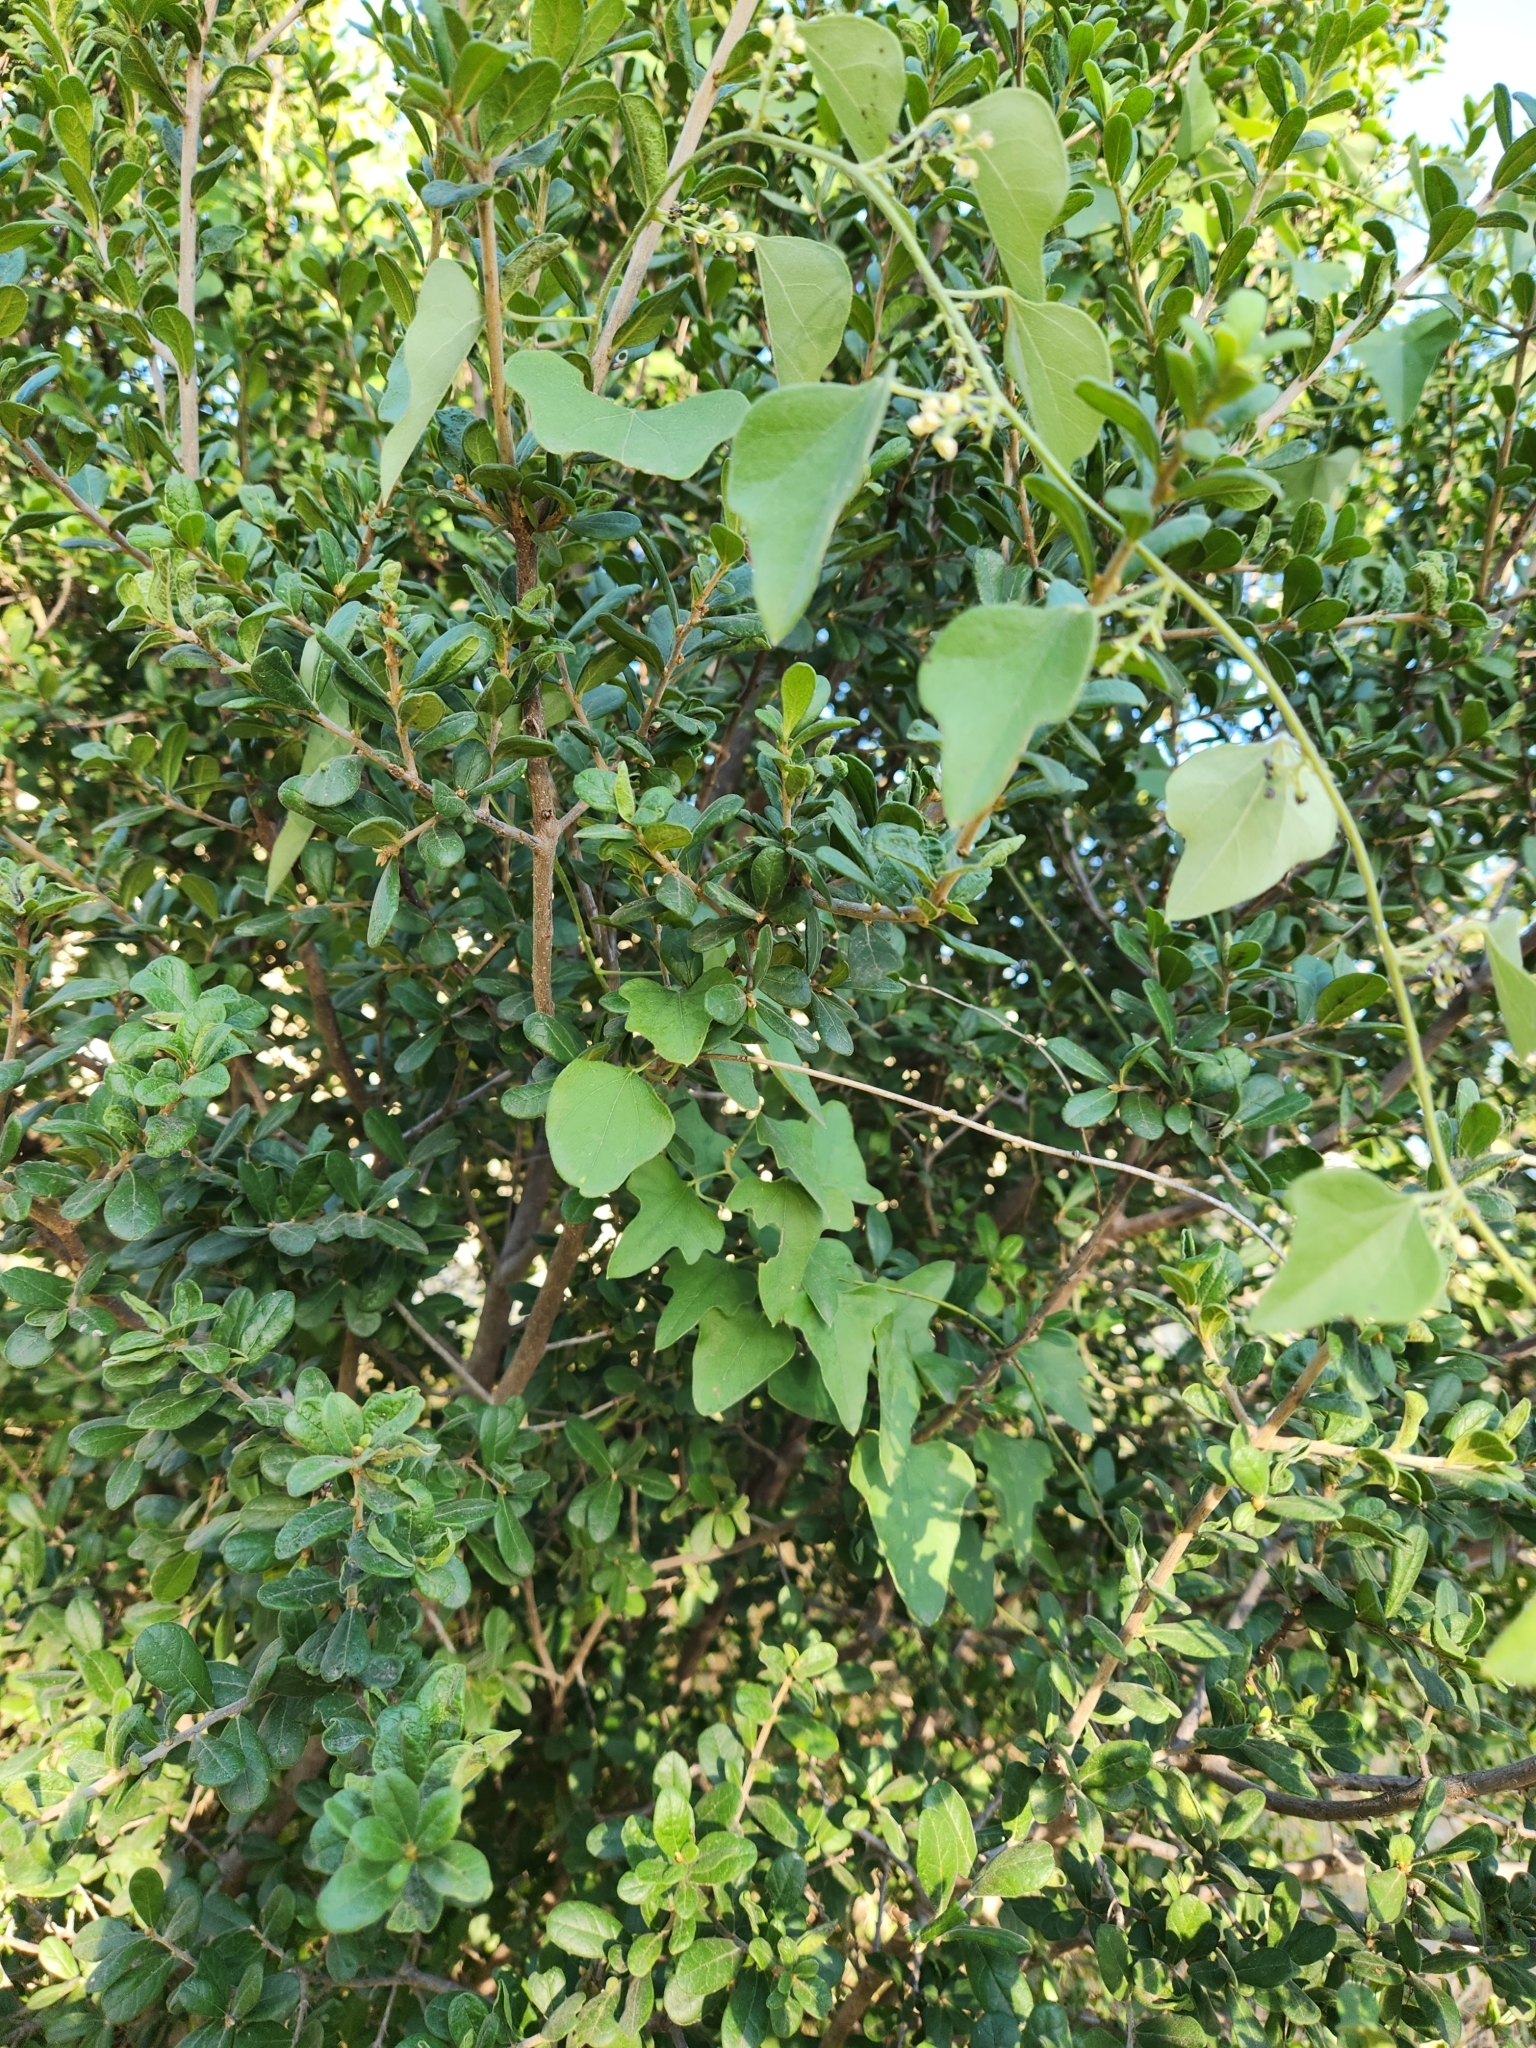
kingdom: Plantae
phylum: Tracheophyta
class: Magnoliopsida
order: Ranunculales
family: Menispermaceae
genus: Cocculus
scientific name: Cocculus carolinus
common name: Carolina moonseed
